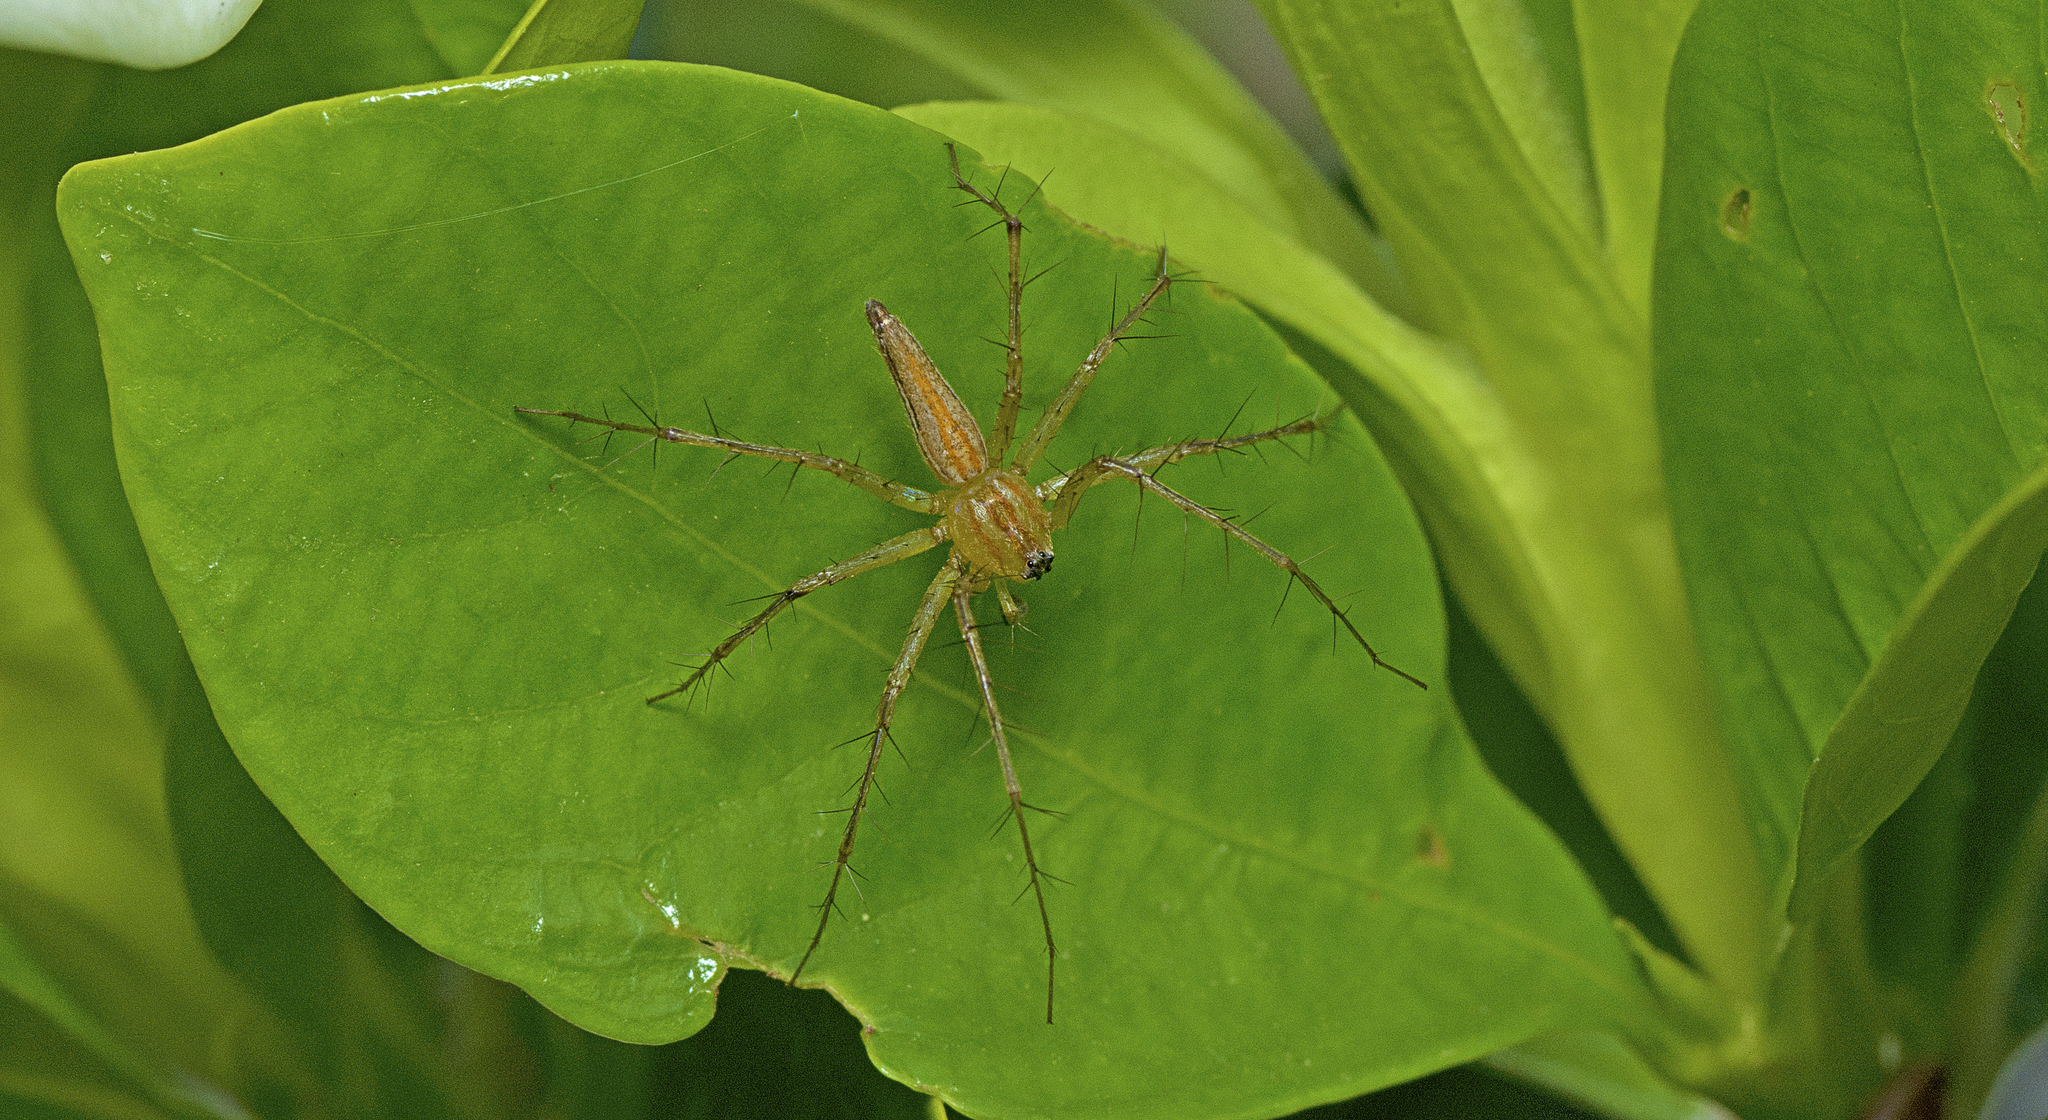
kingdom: Animalia
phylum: Arthropoda
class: Arachnida
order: Araneae
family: Oxyopidae
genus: Oxyopes
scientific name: Oxyopes macilentus
